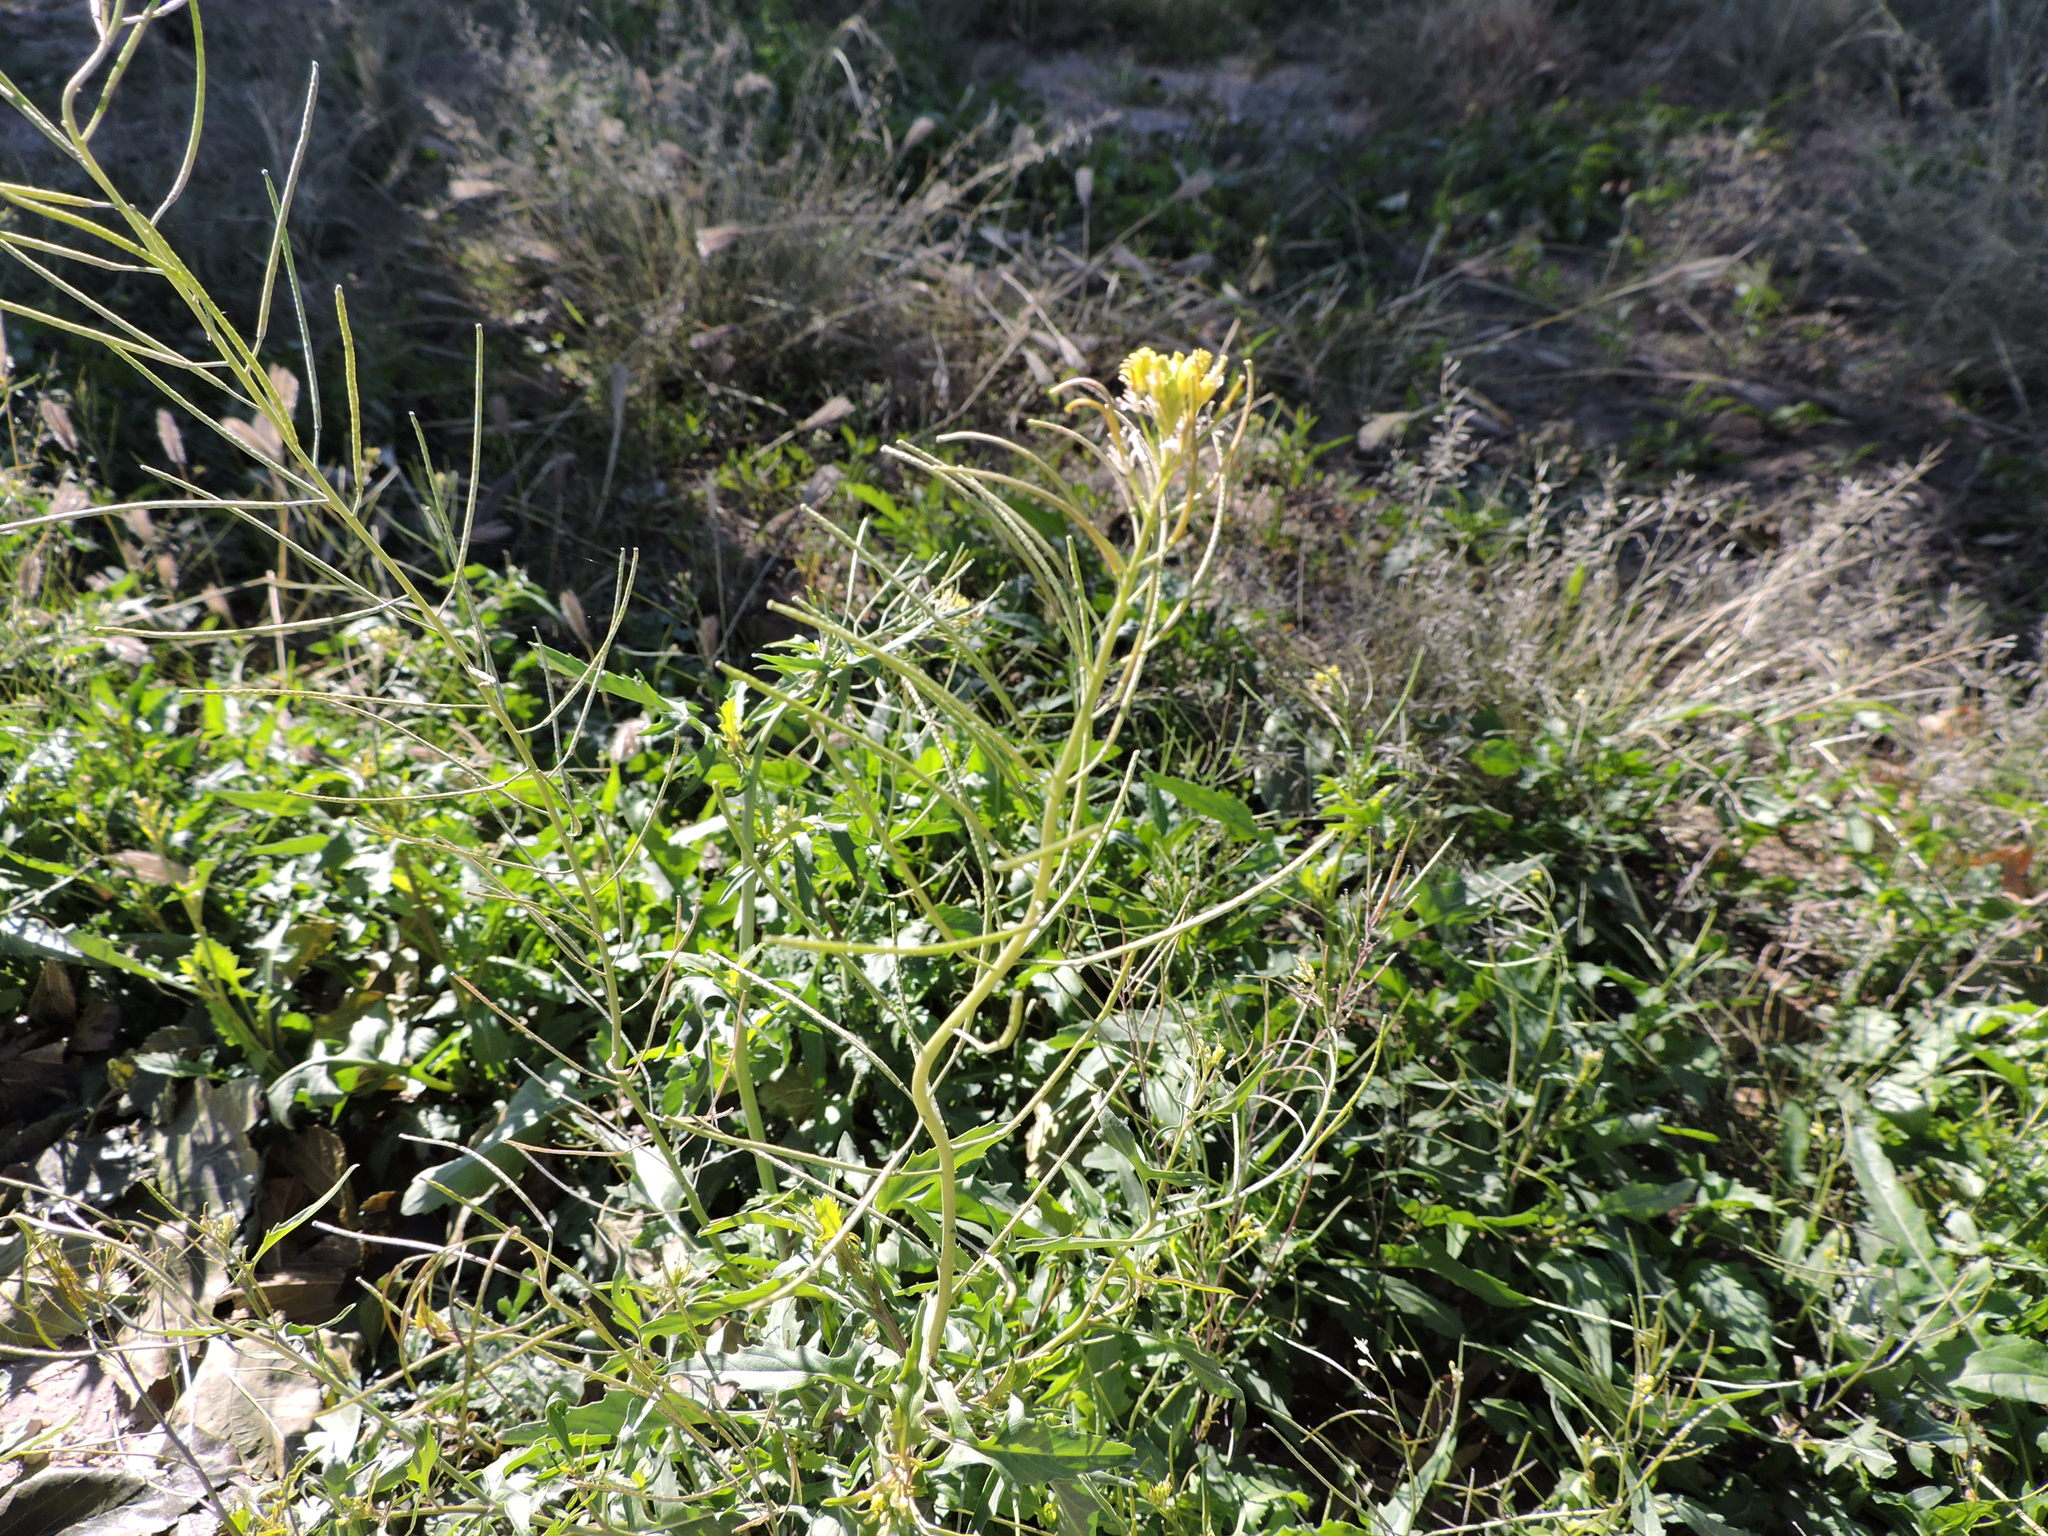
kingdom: Plantae
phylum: Tracheophyta
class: Magnoliopsida
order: Brassicales
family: Brassicaceae
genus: Sisymbrium
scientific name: Sisymbrium irio
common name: London rocket
